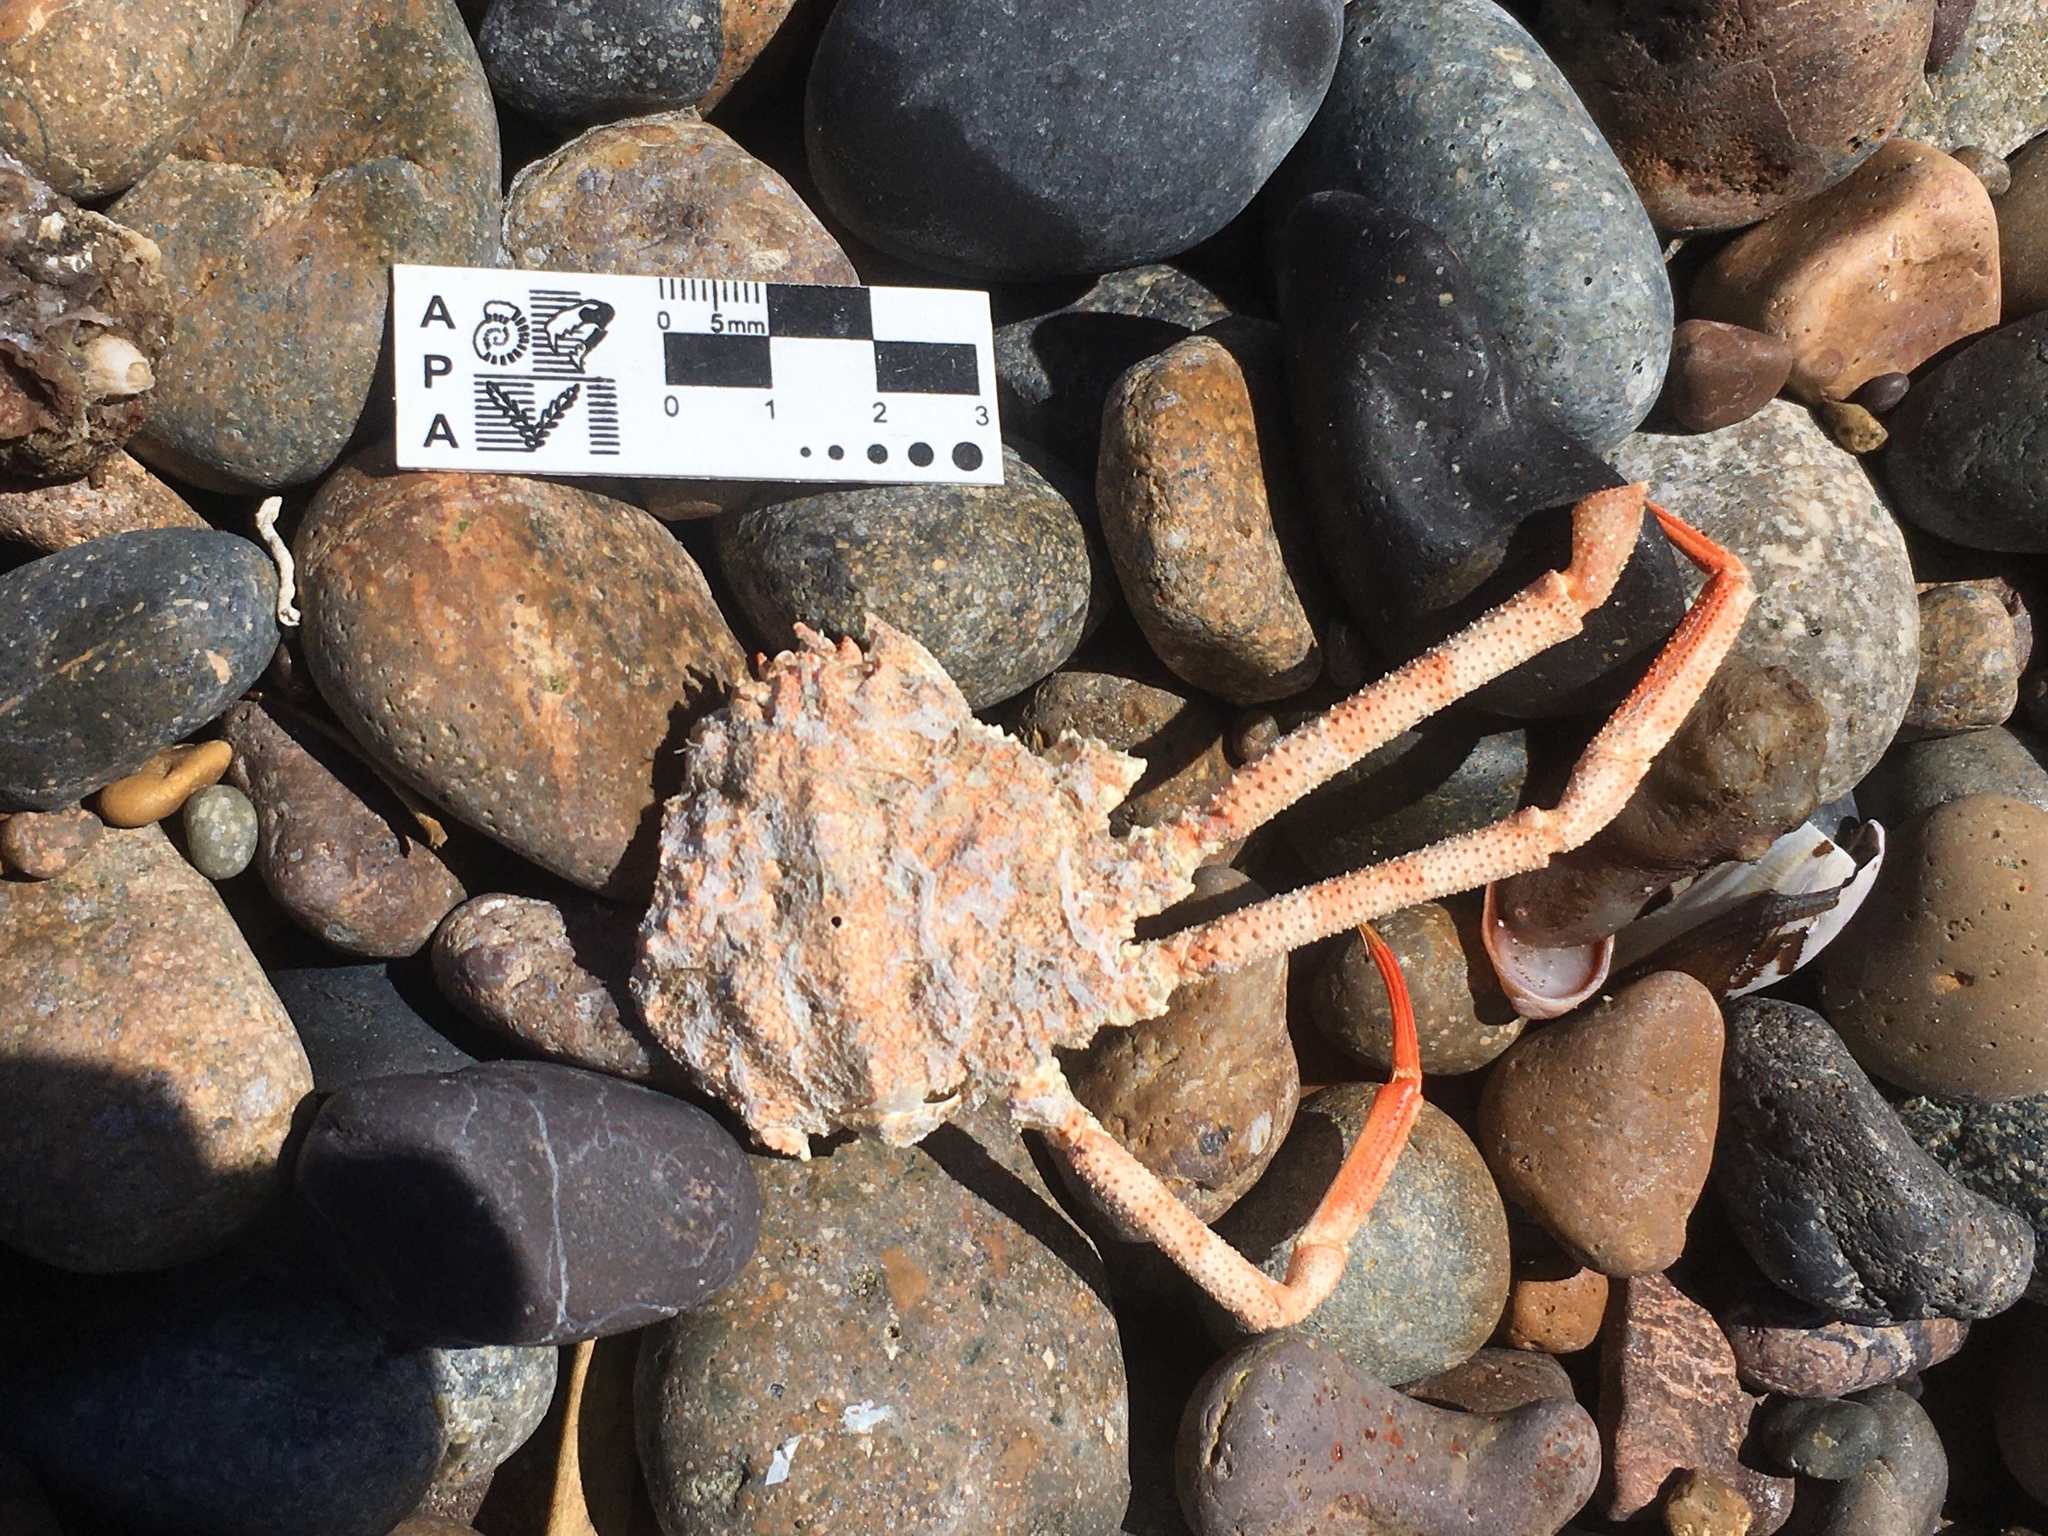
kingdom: Animalia
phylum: Arthropoda
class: Malacostraca
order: Decapoda
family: Inachoididae
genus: Leurocyclus
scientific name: Leurocyclus tuberculosus
